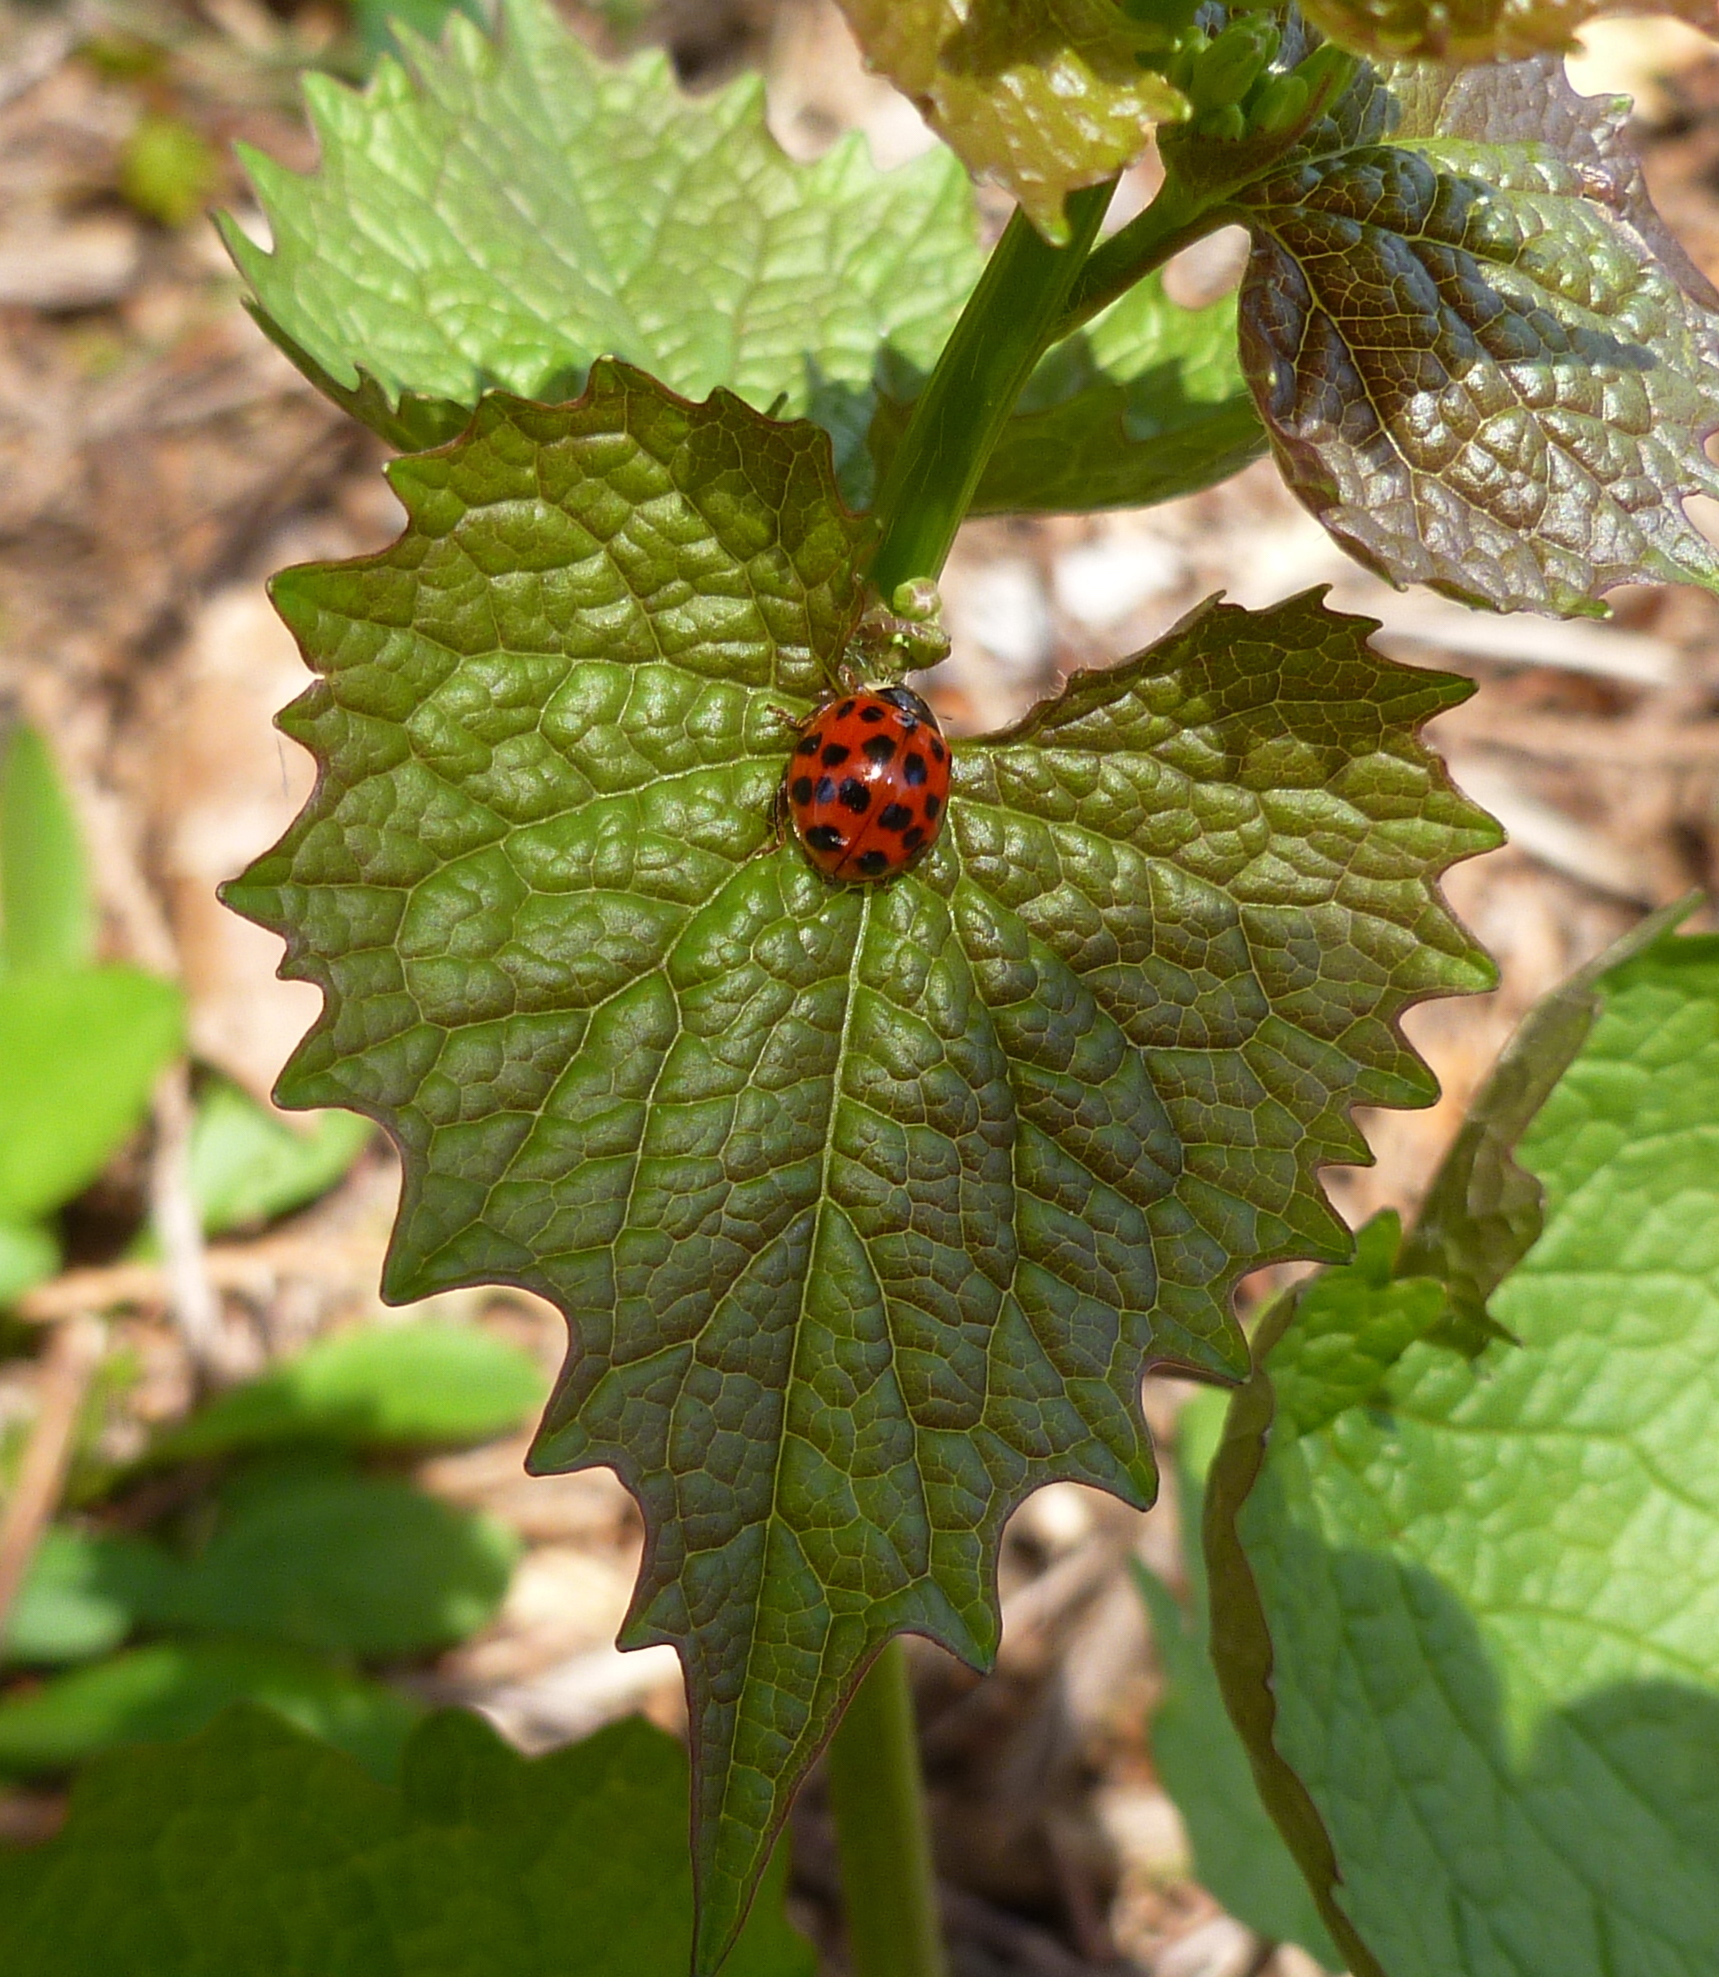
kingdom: Animalia
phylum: Arthropoda
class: Insecta
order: Coleoptera
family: Coccinellidae
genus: Harmonia
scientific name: Harmonia axyridis
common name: Harlequin ladybird
